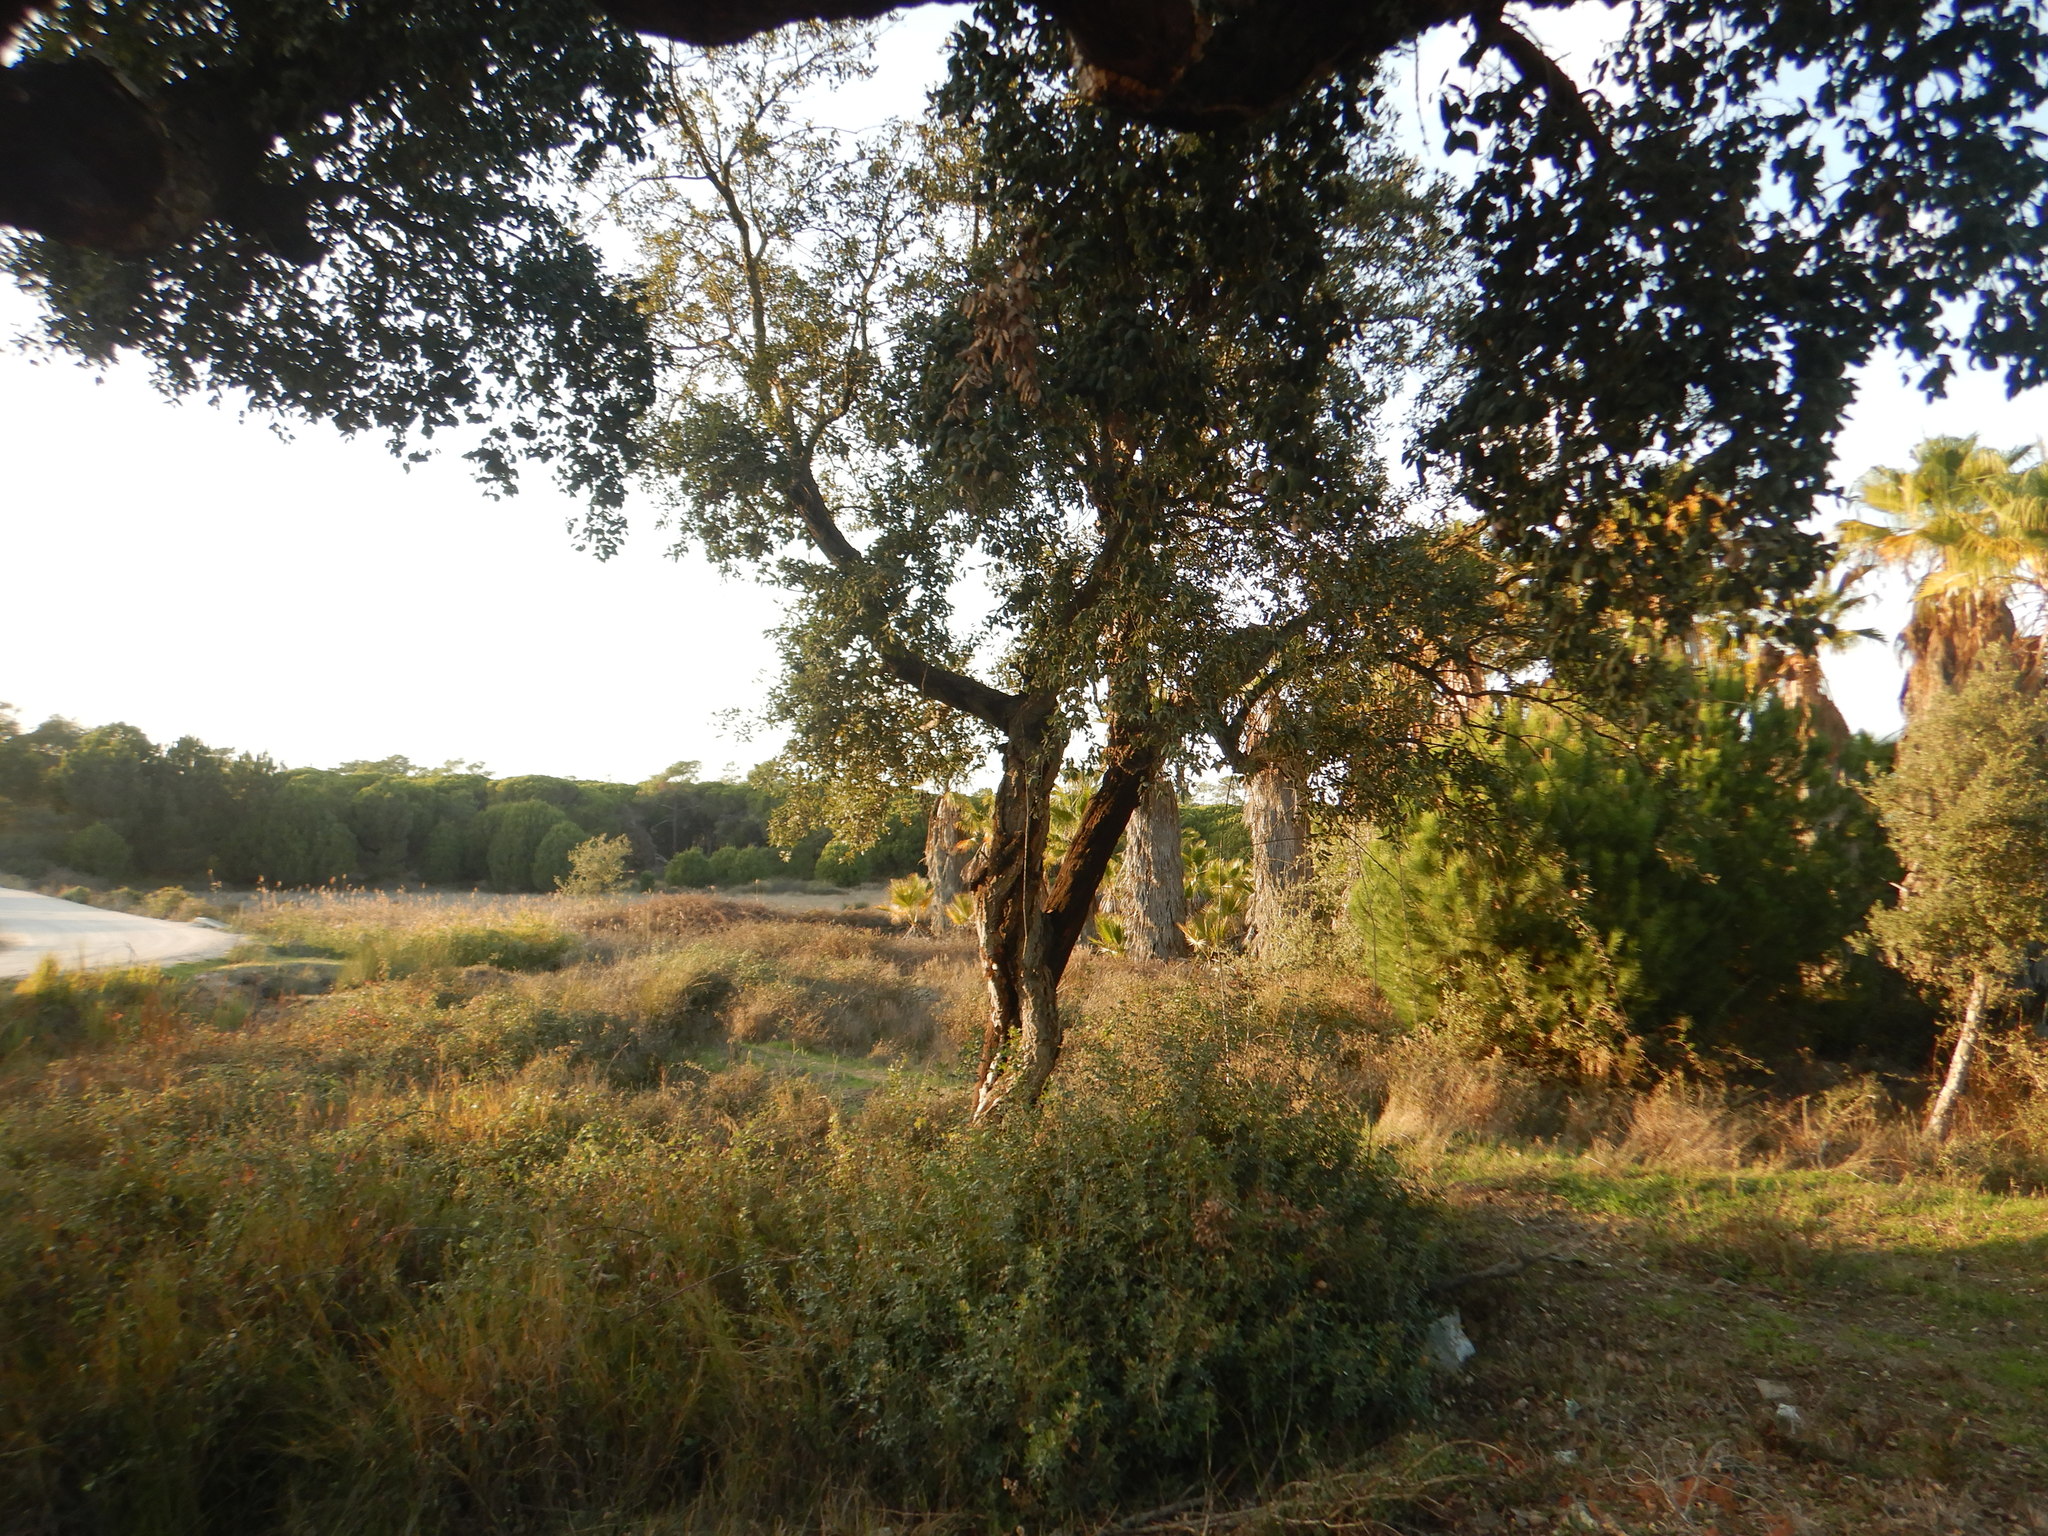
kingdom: Plantae
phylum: Tracheophyta
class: Magnoliopsida
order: Fagales
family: Fagaceae
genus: Quercus
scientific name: Quercus suber
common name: Cork oak
